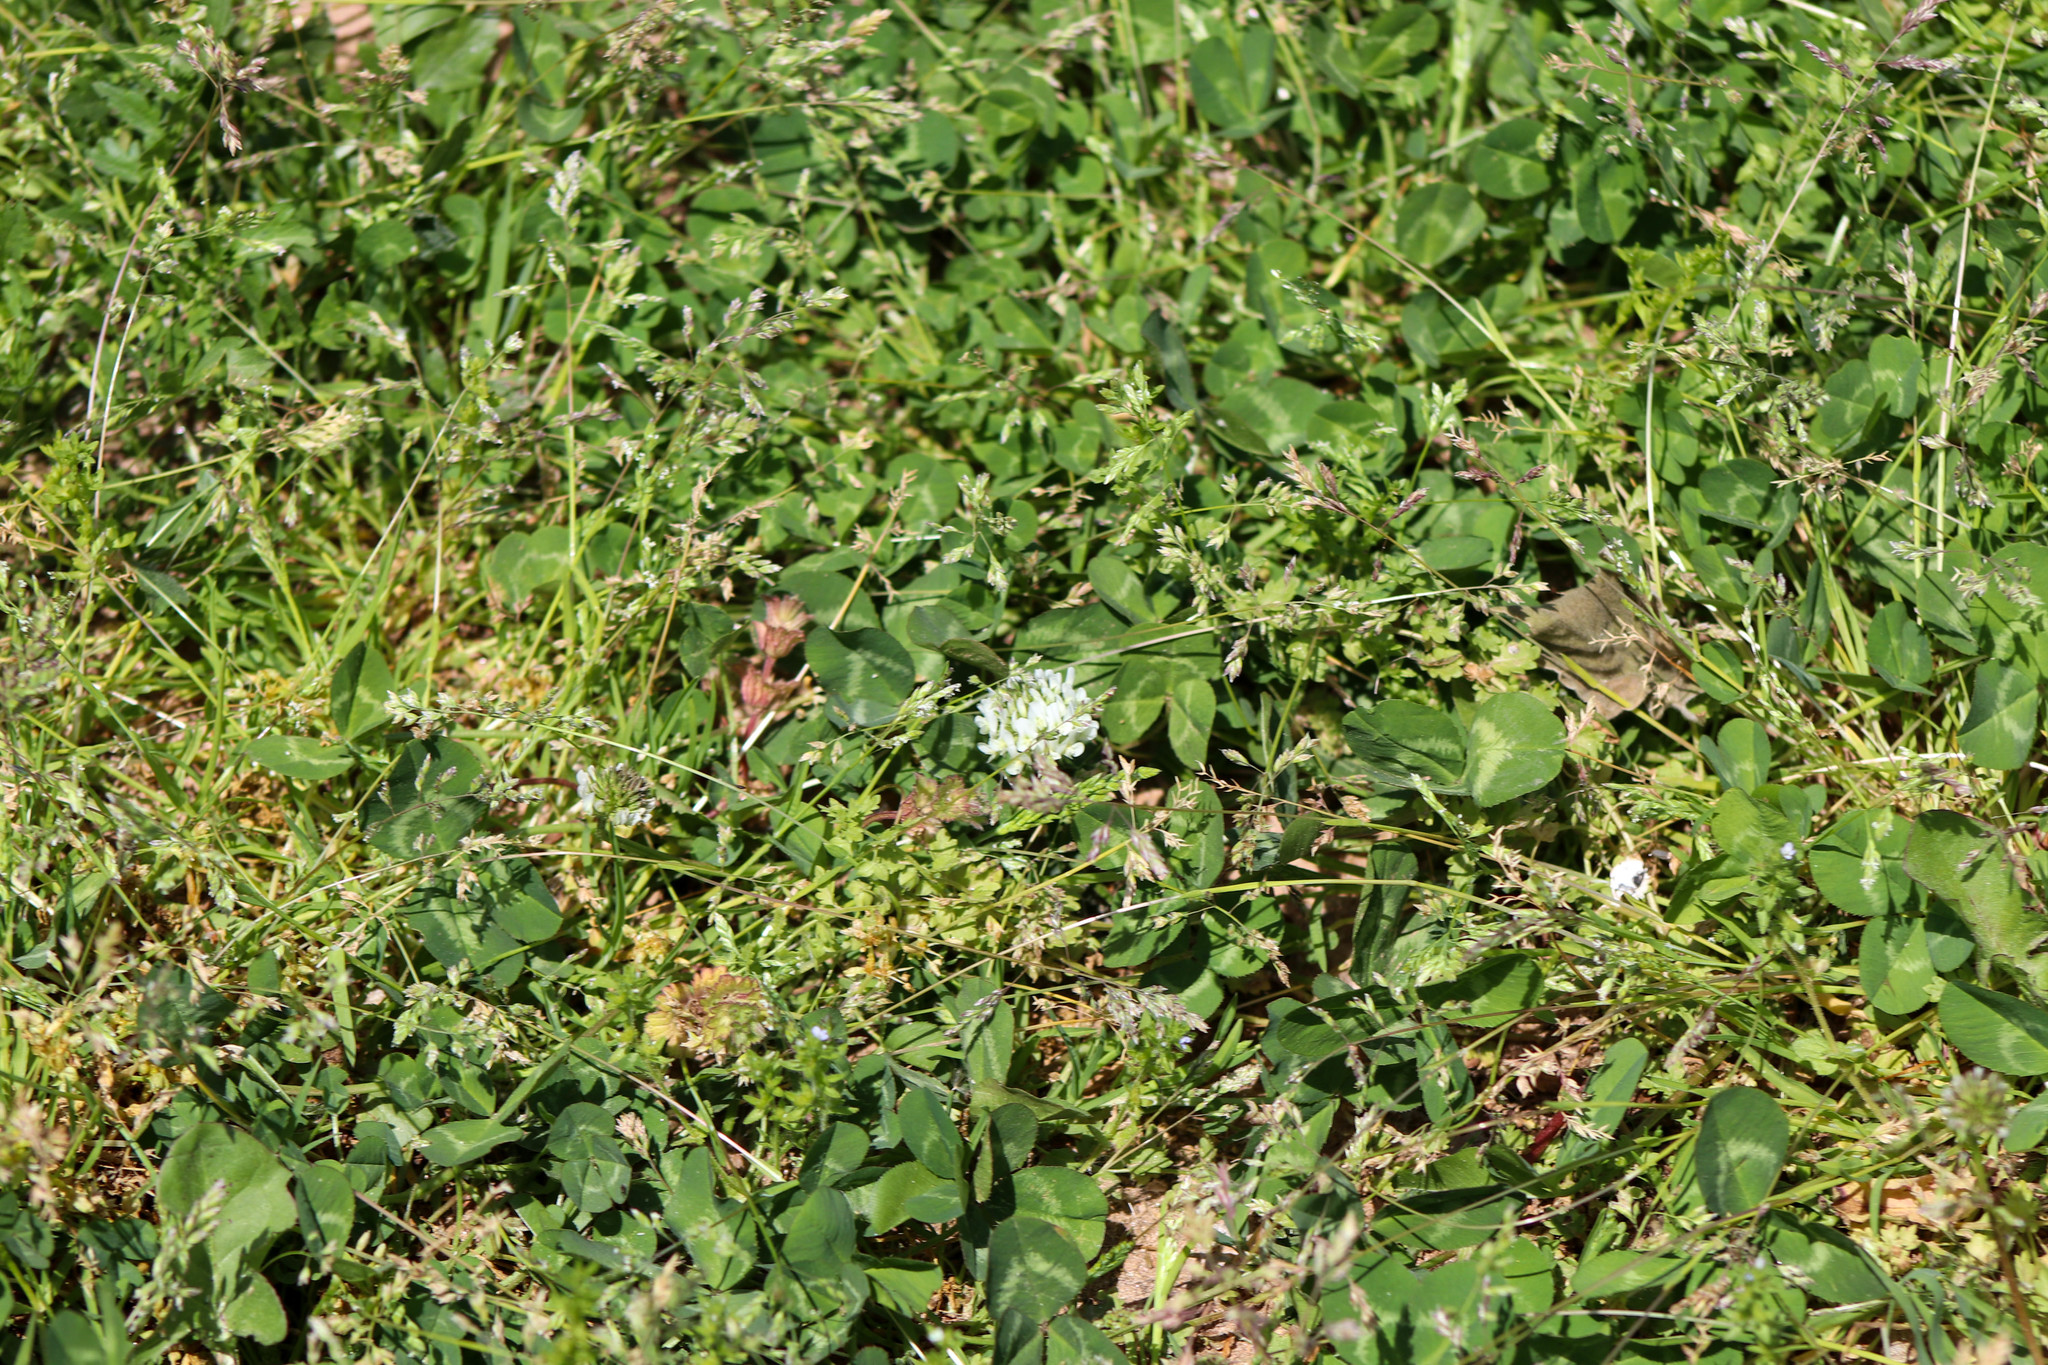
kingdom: Plantae
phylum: Tracheophyta
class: Magnoliopsida
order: Fabales
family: Fabaceae
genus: Trifolium
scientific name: Trifolium repens
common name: White clover
